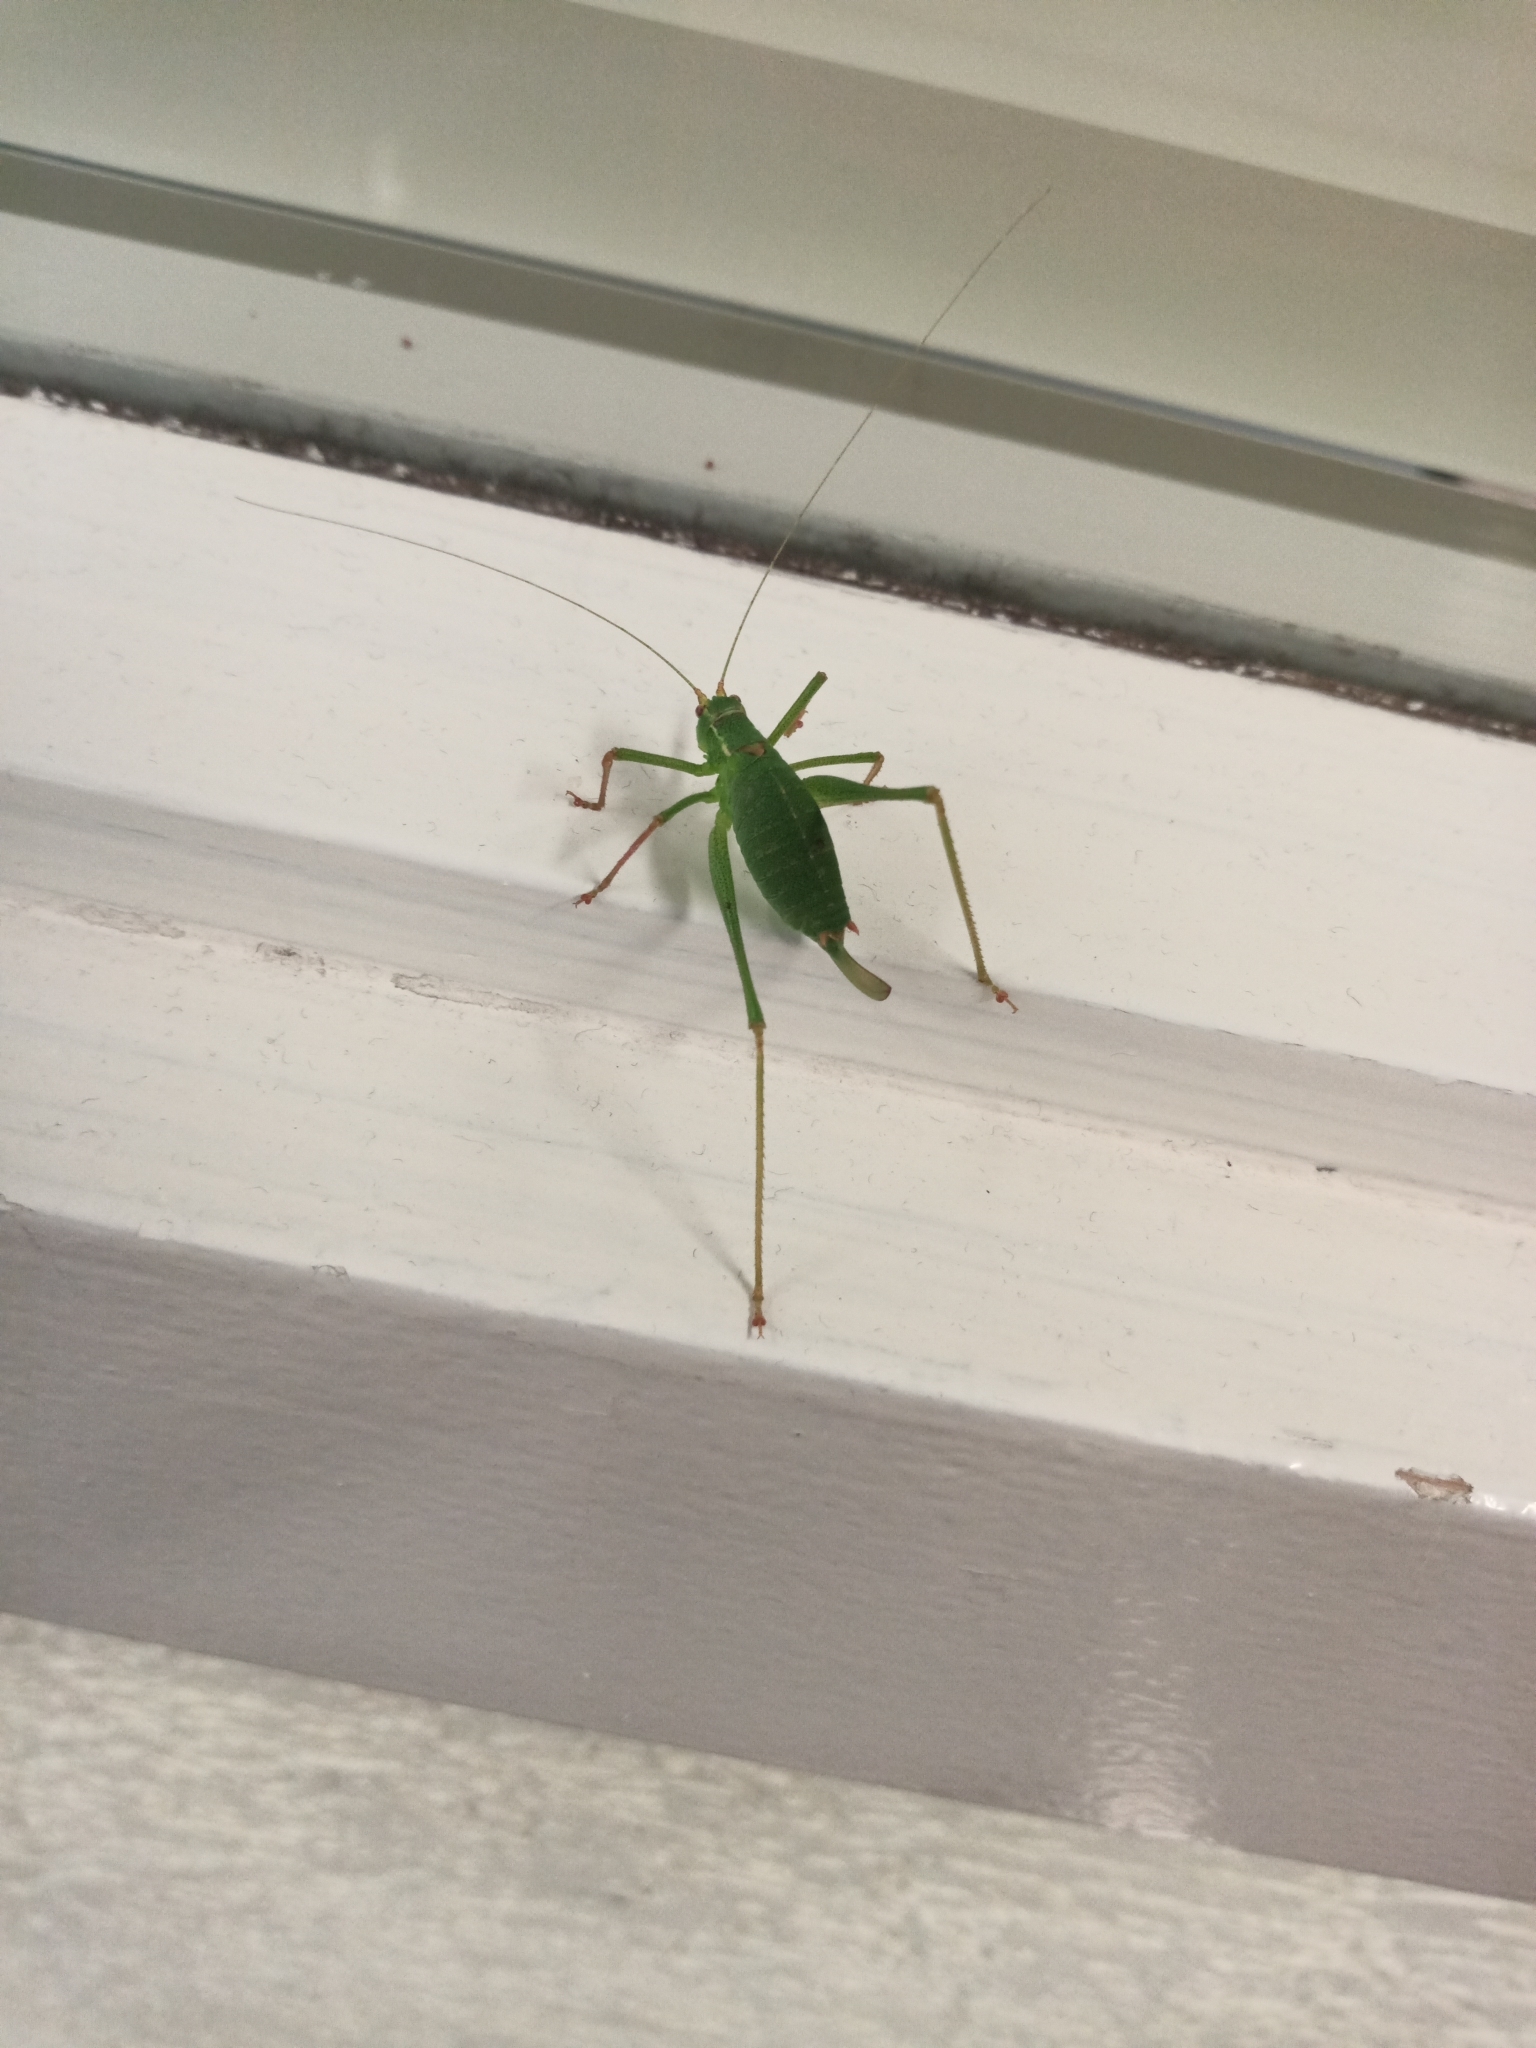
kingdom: Animalia
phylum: Arthropoda
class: Insecta
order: Orthoptera
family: Tettigoniidae
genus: Leptophyes
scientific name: Leptophyes punctatissima
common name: Speckled bush-cricket
